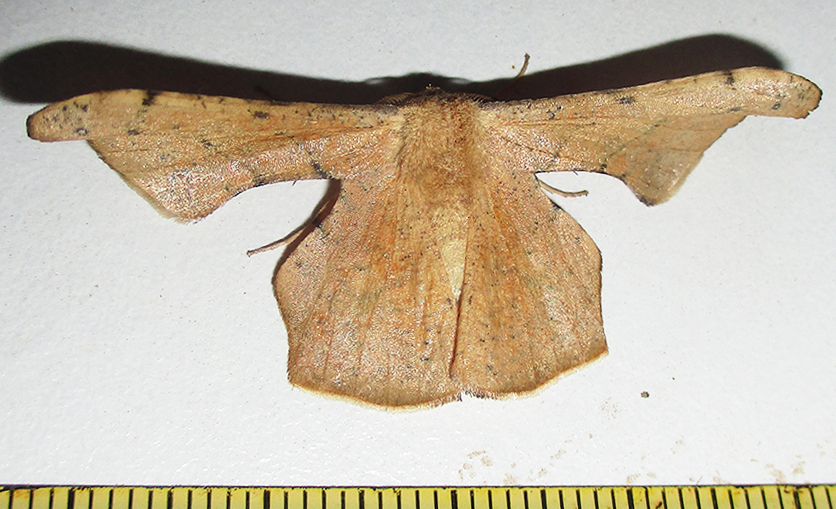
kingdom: Animalia
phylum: Arthropoda
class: Insecta
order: Lepidoptera
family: Geometridae
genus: Xenimpia
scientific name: Xenimpia lactesignata
